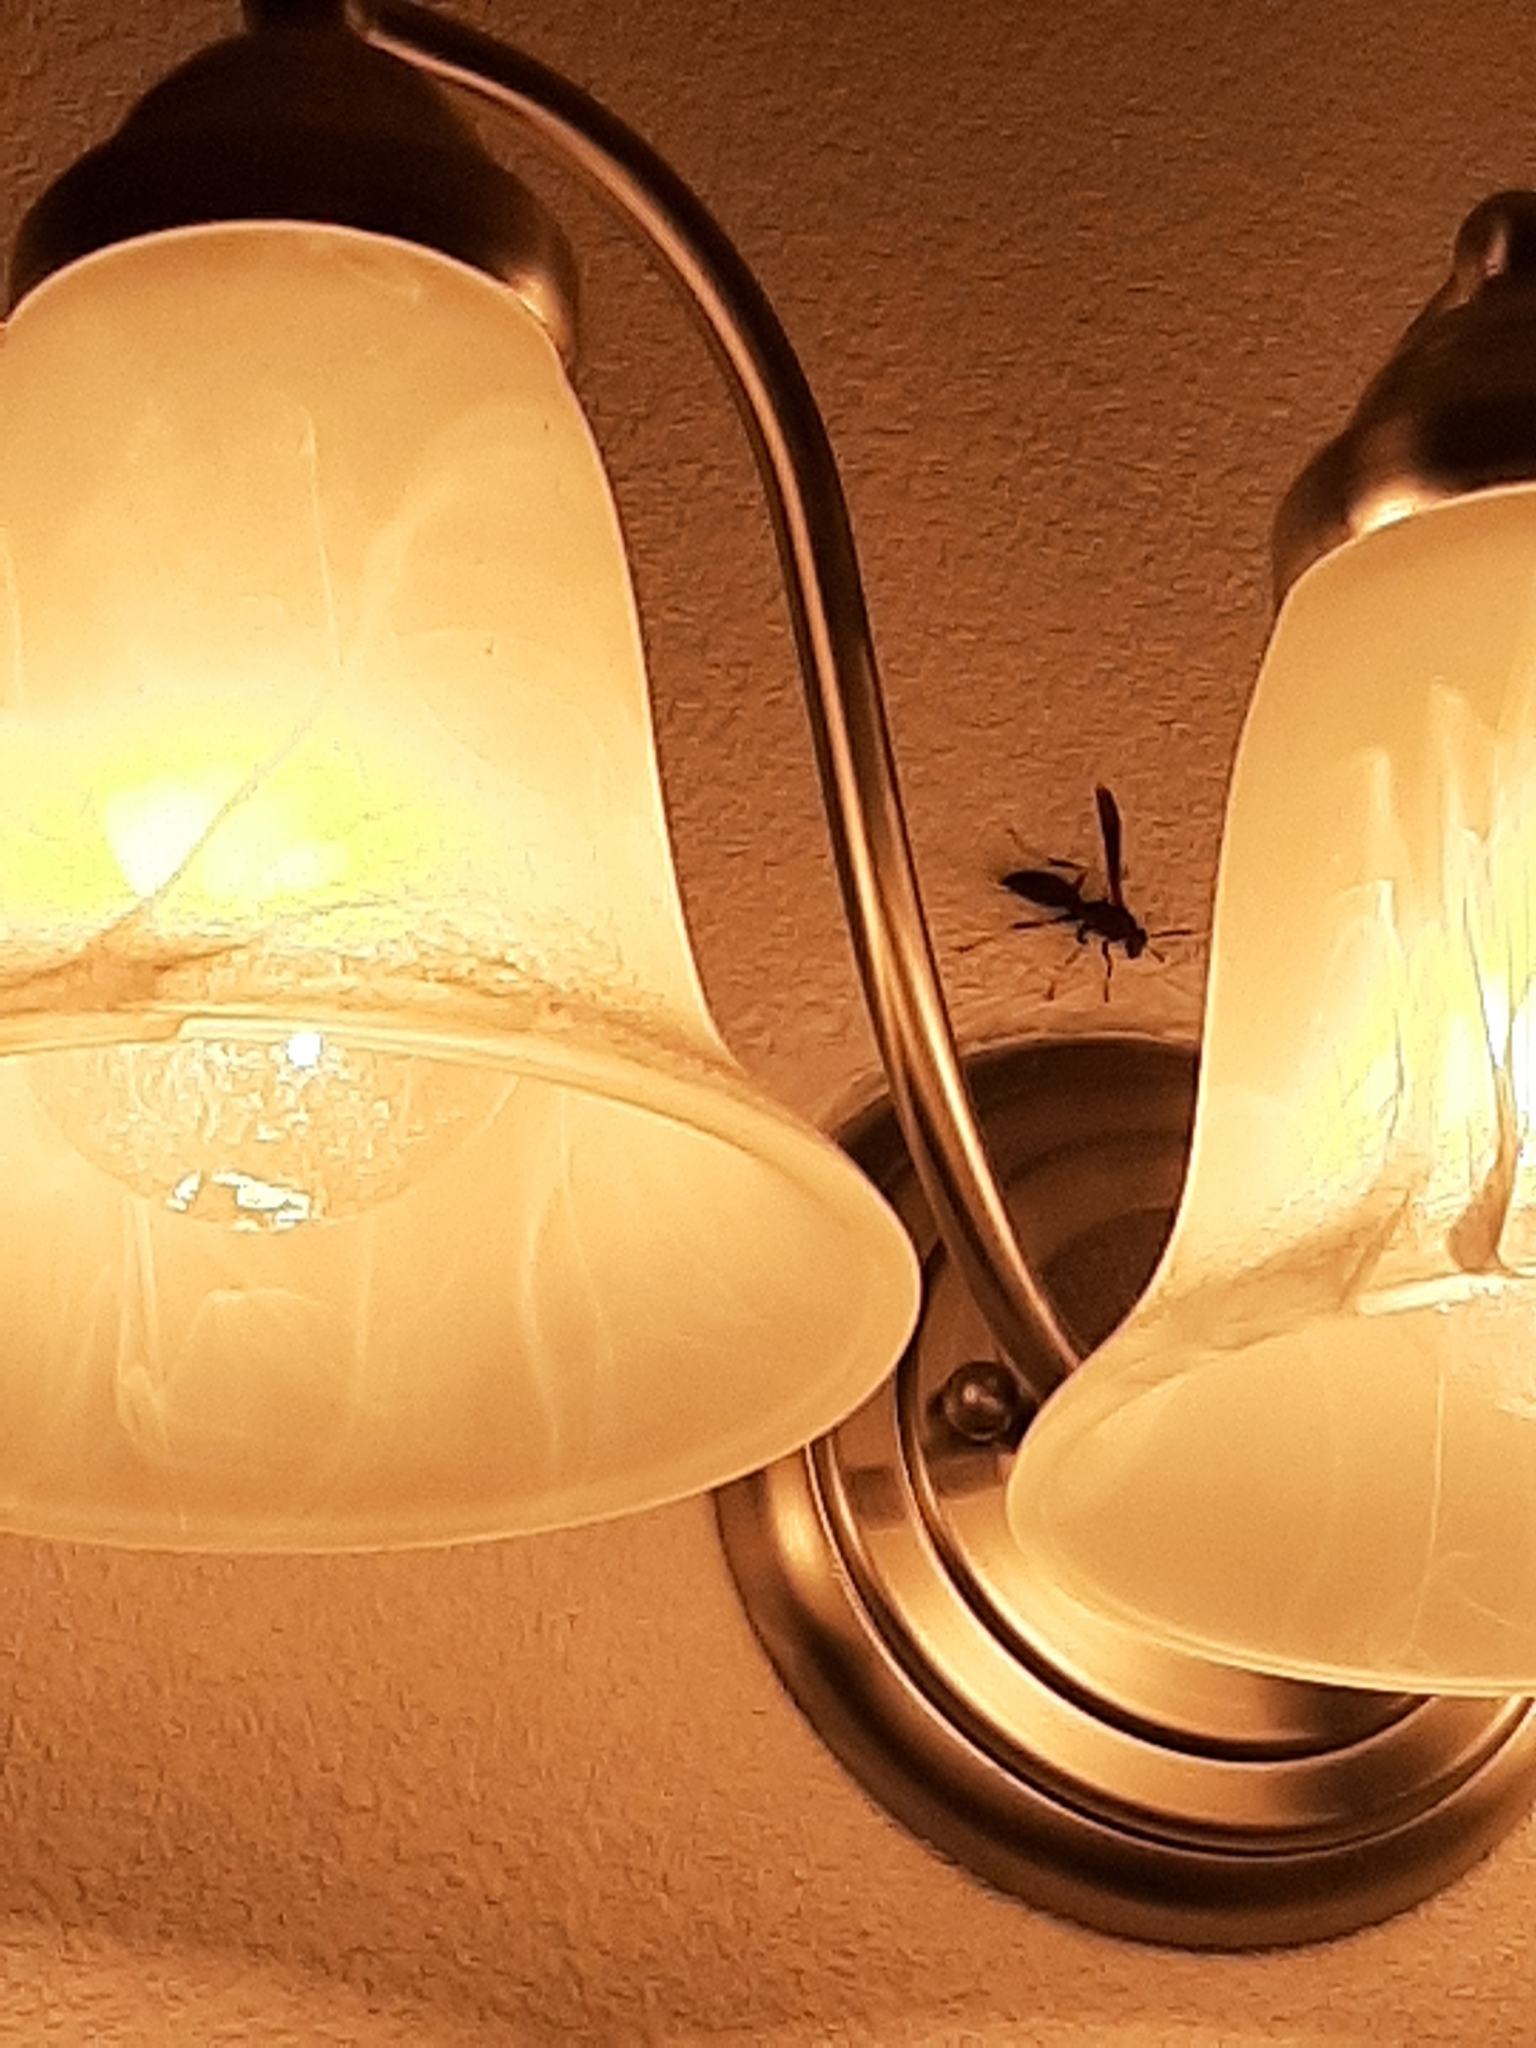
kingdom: Animalia
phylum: Arthropoda
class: Insecta
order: Hymenoptera
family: Eumenidae
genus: Polistes
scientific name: Polistes metricus
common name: Metric paper wasp
